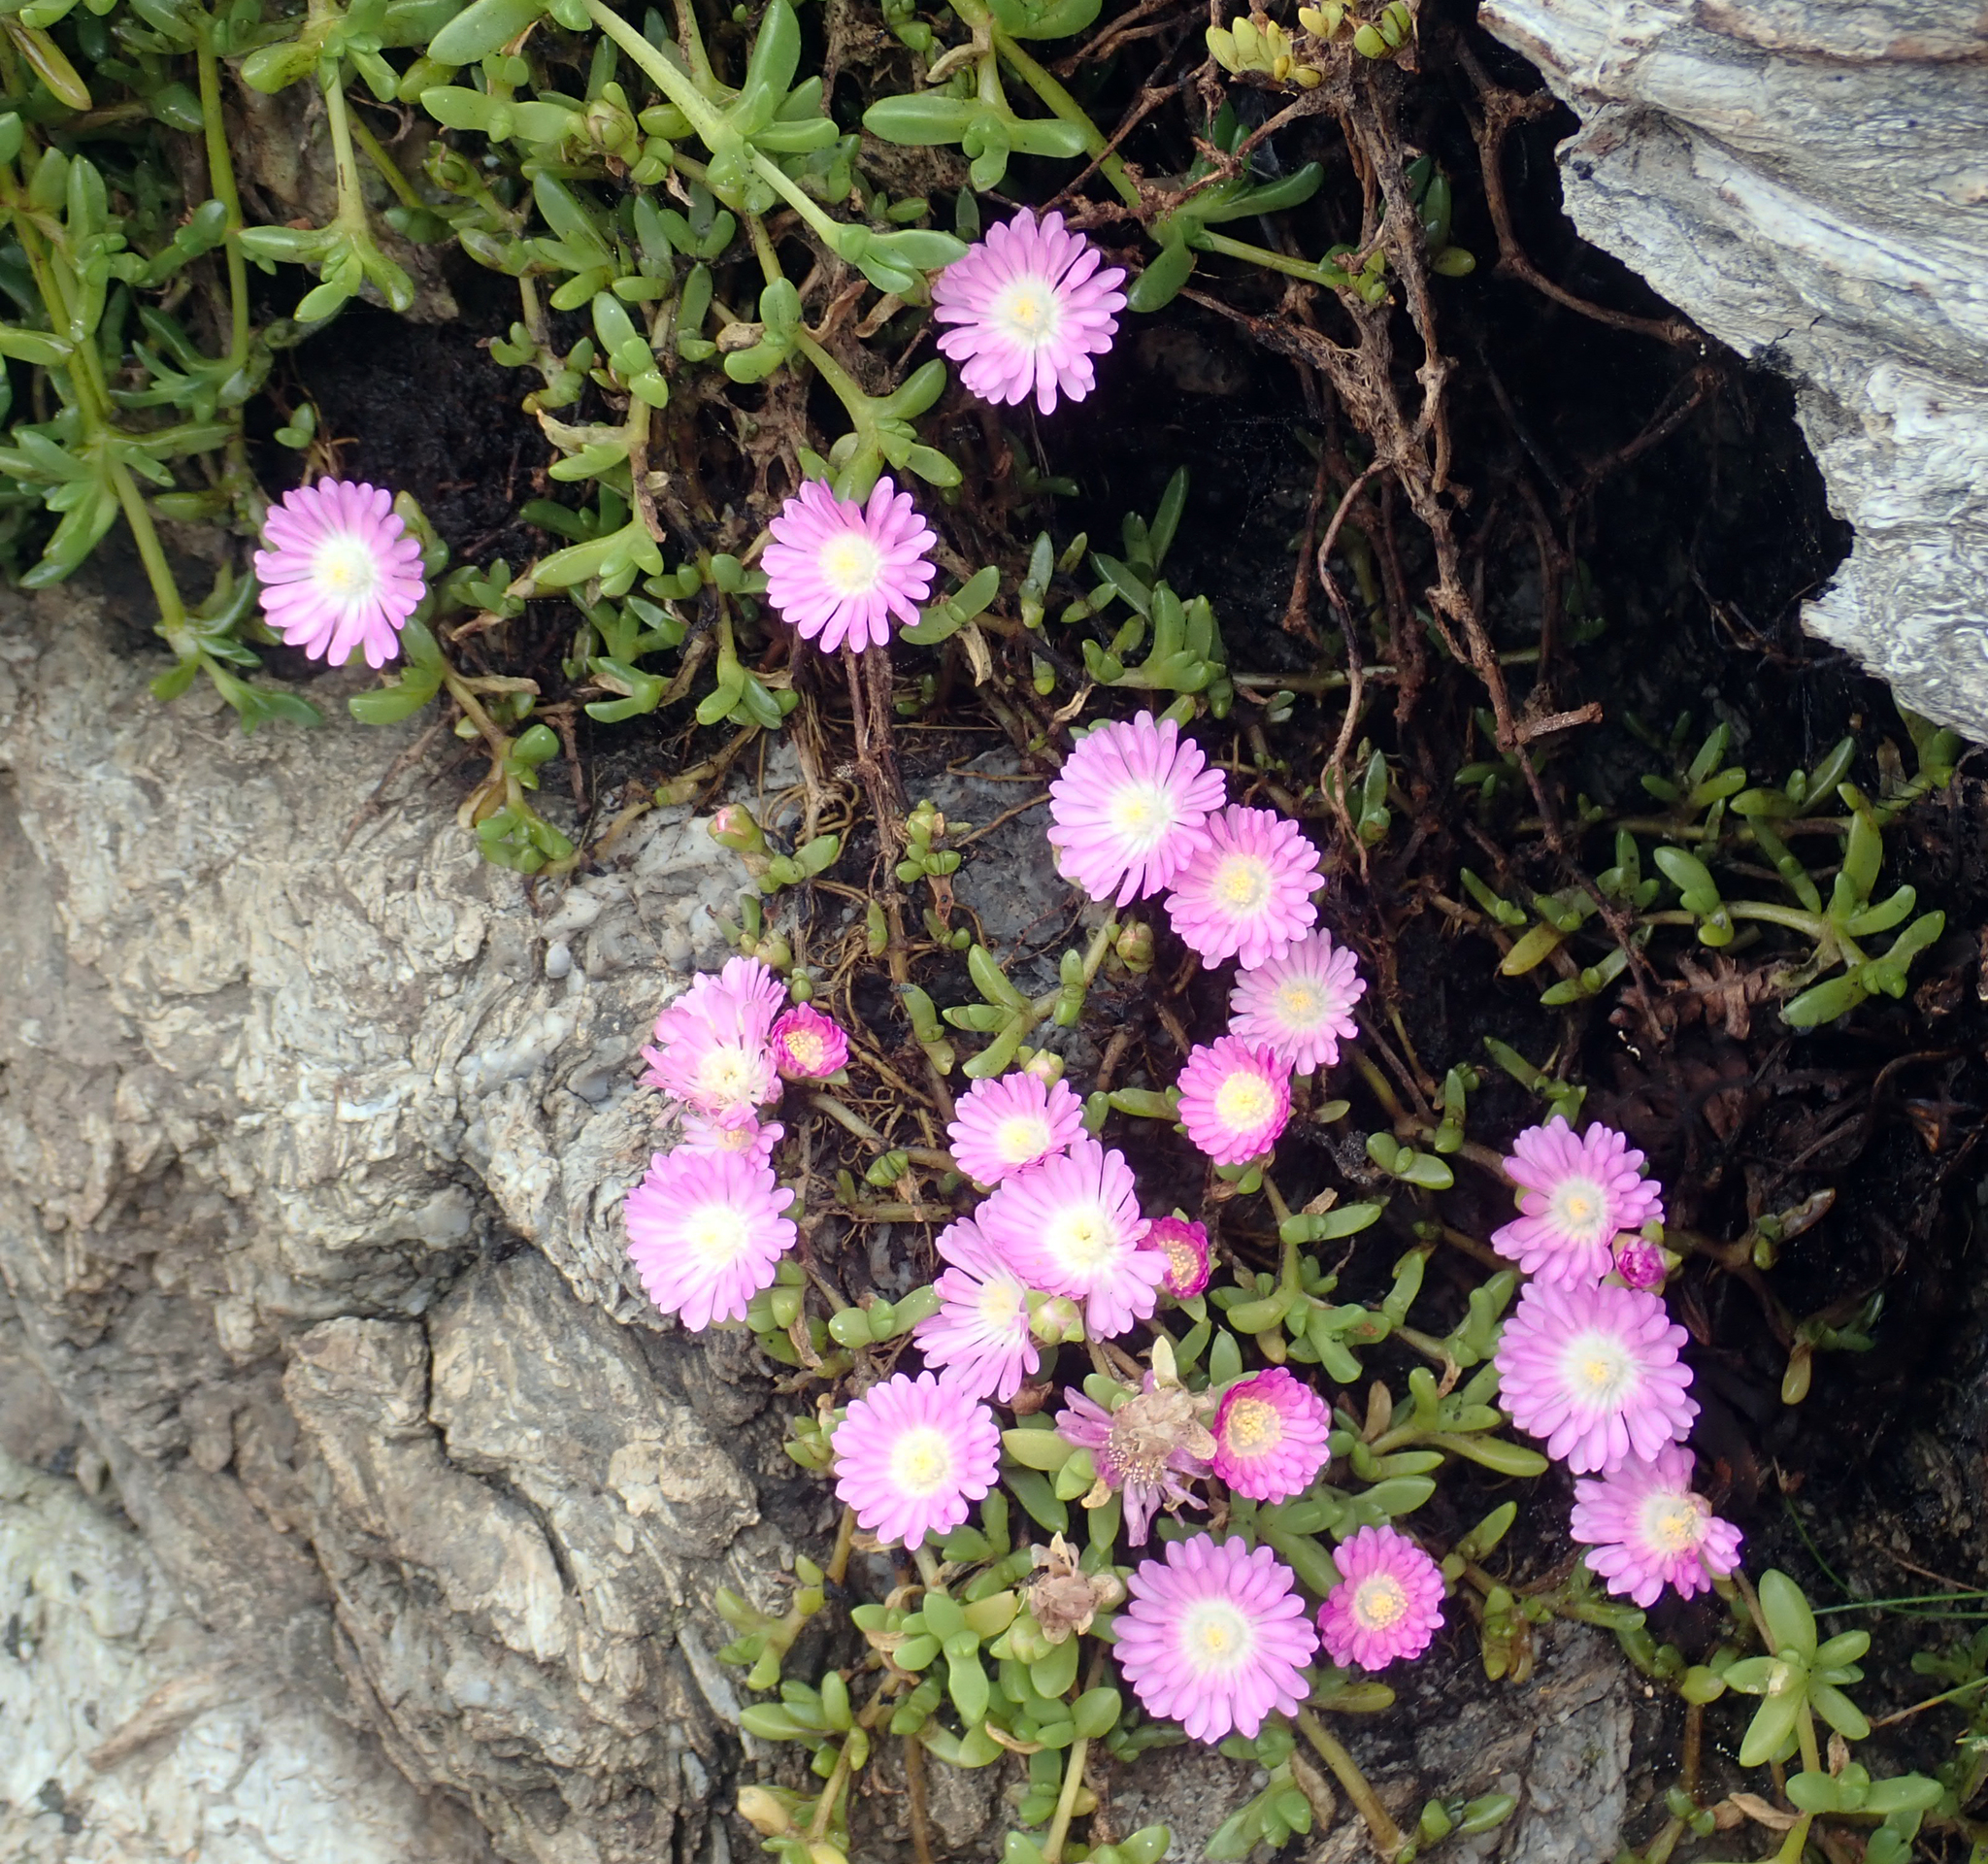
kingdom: Plantae
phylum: Tracheophyta
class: Magnoliopsida
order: Caryophyllales
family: Aizoaceae
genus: Disphyma
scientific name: Disphyma papillatum
